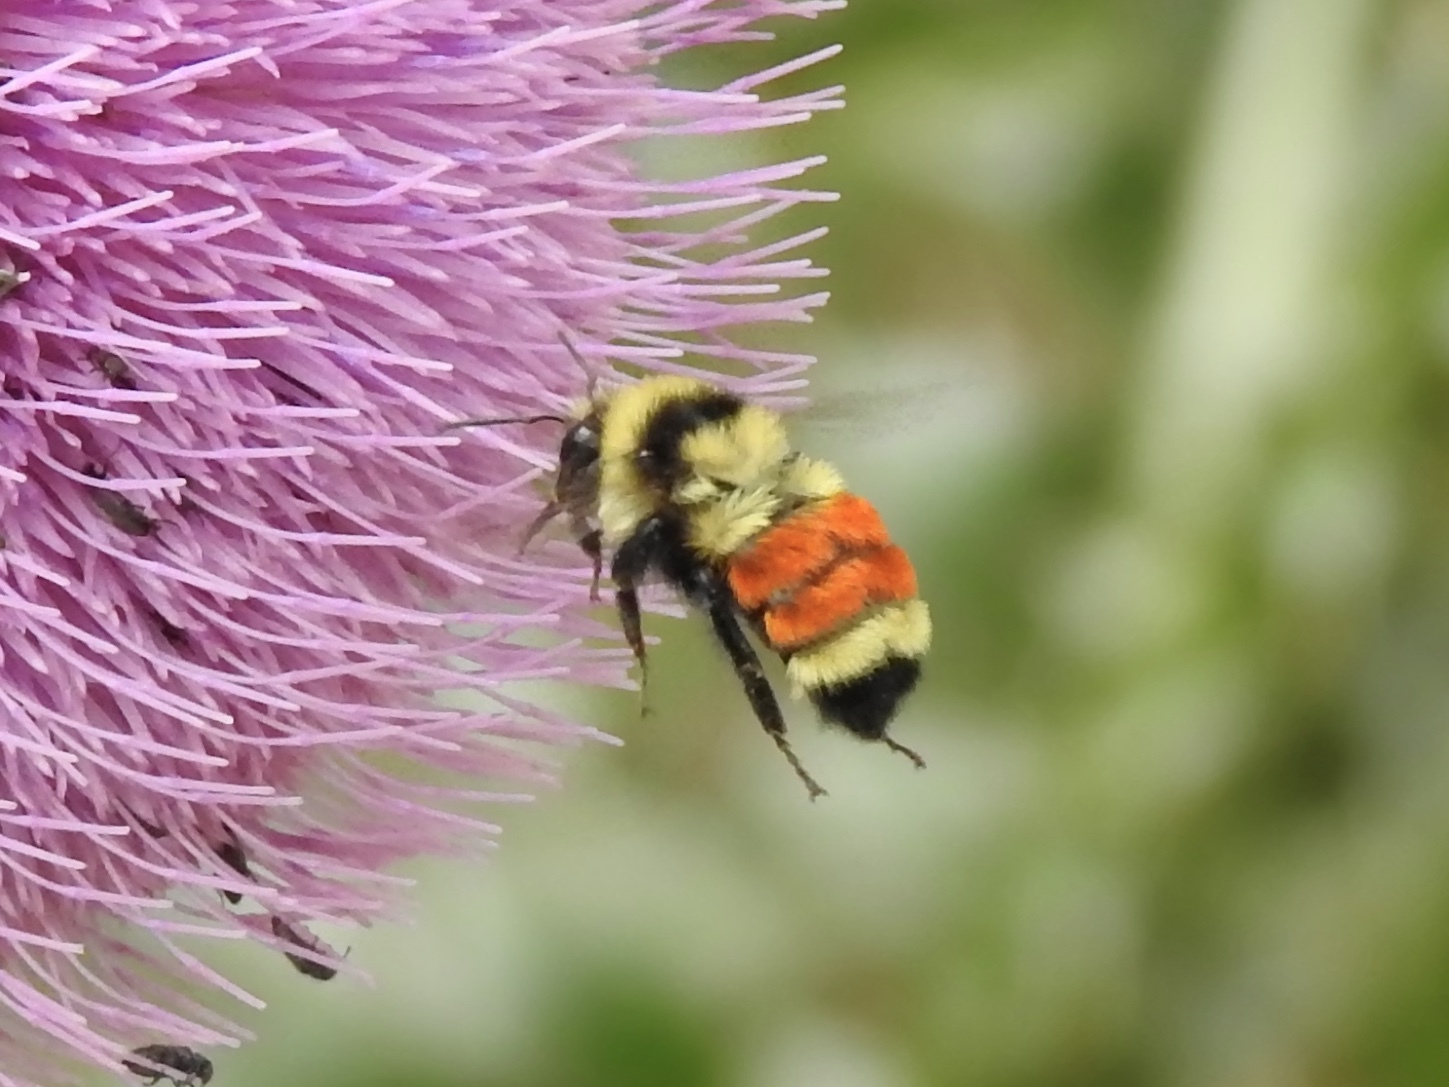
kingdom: Animalia
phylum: Arthropoda
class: Insecta
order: Hymenoptera
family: Apidae
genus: Bombus
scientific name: Bombus huntii
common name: Hunt bumble bee
